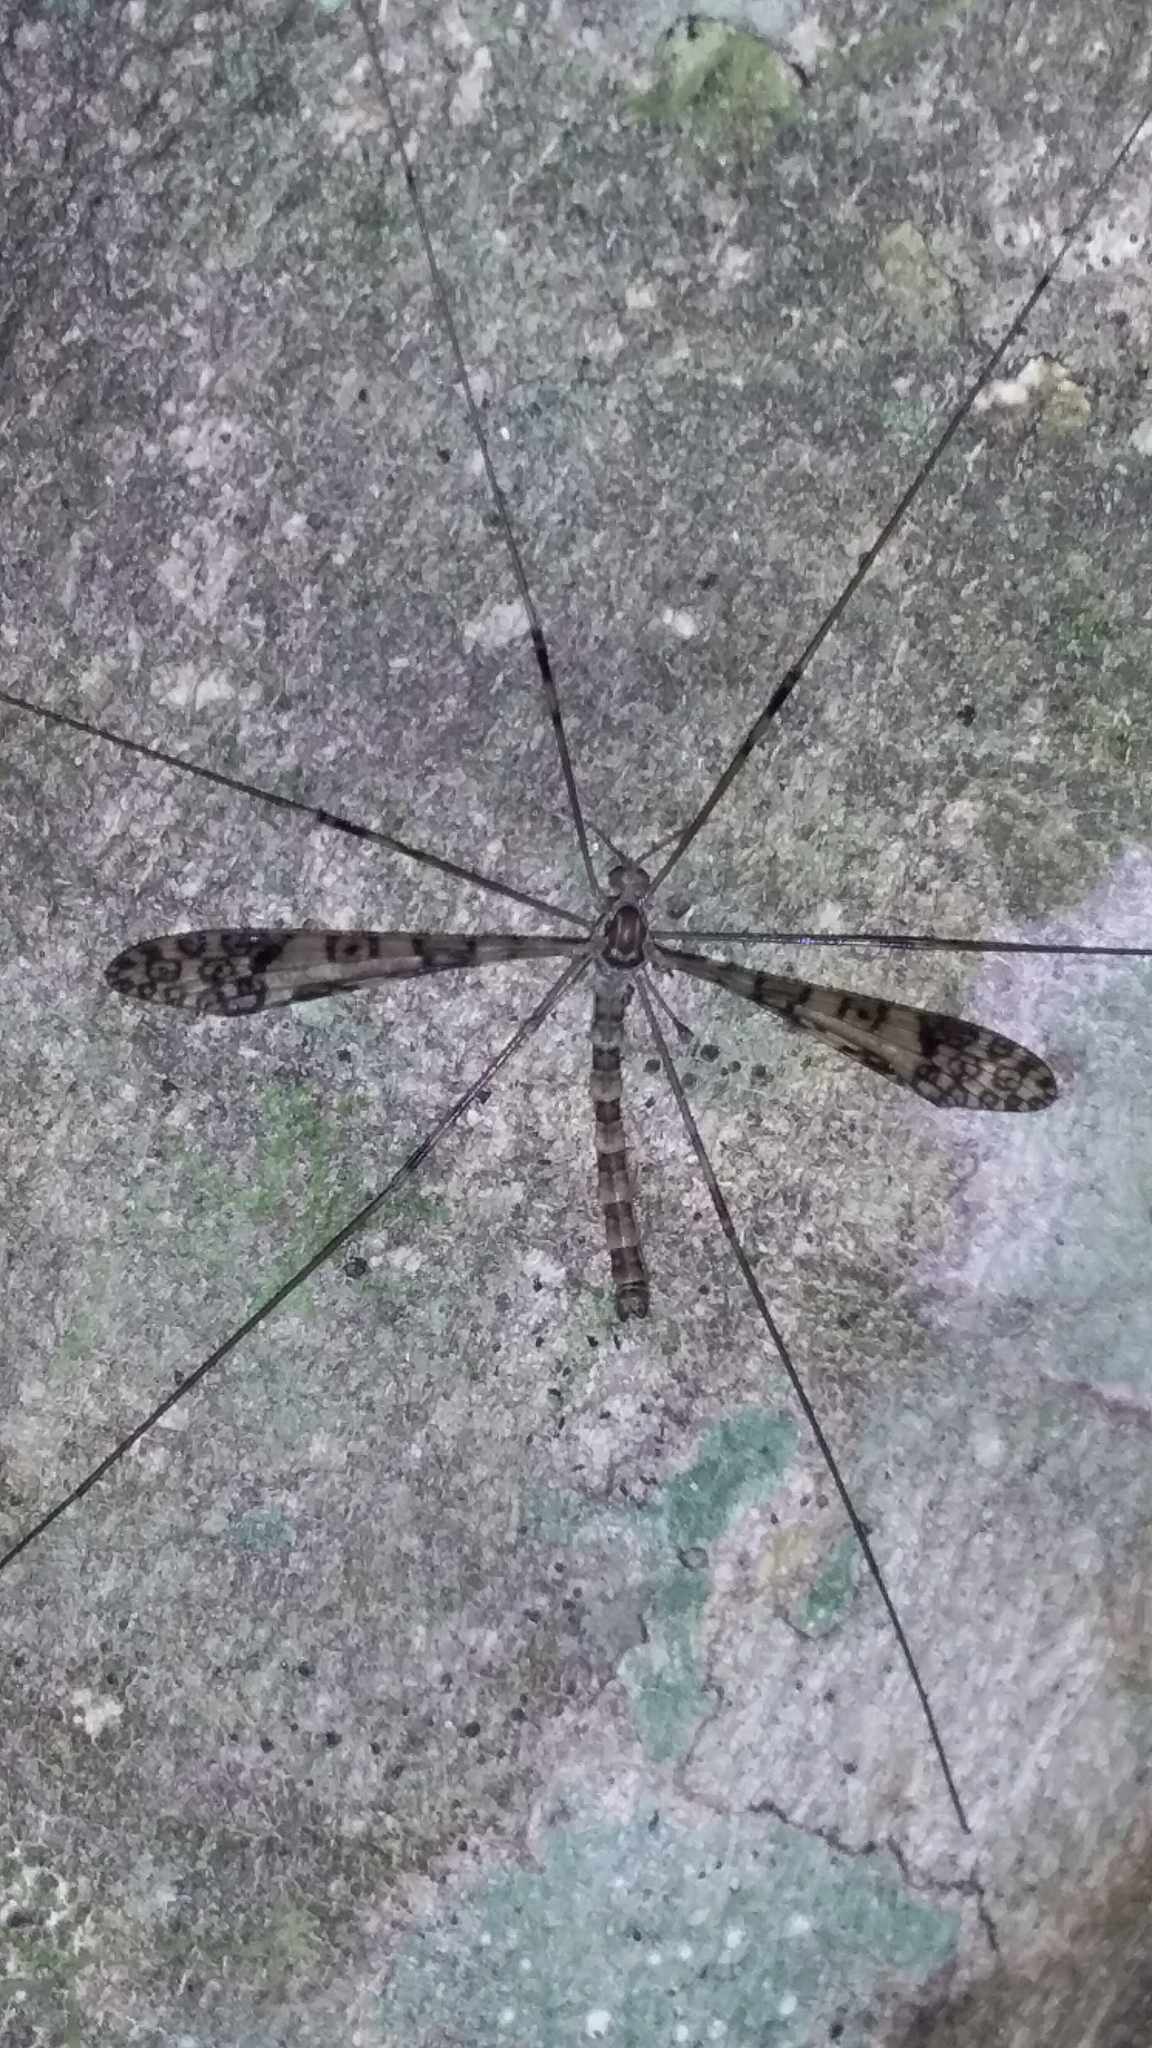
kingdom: Animalia
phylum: Arthropoda
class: Insecta
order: Diptera
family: Limoniidae
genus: Austrolimnophila
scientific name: Austrolimnophila argus
